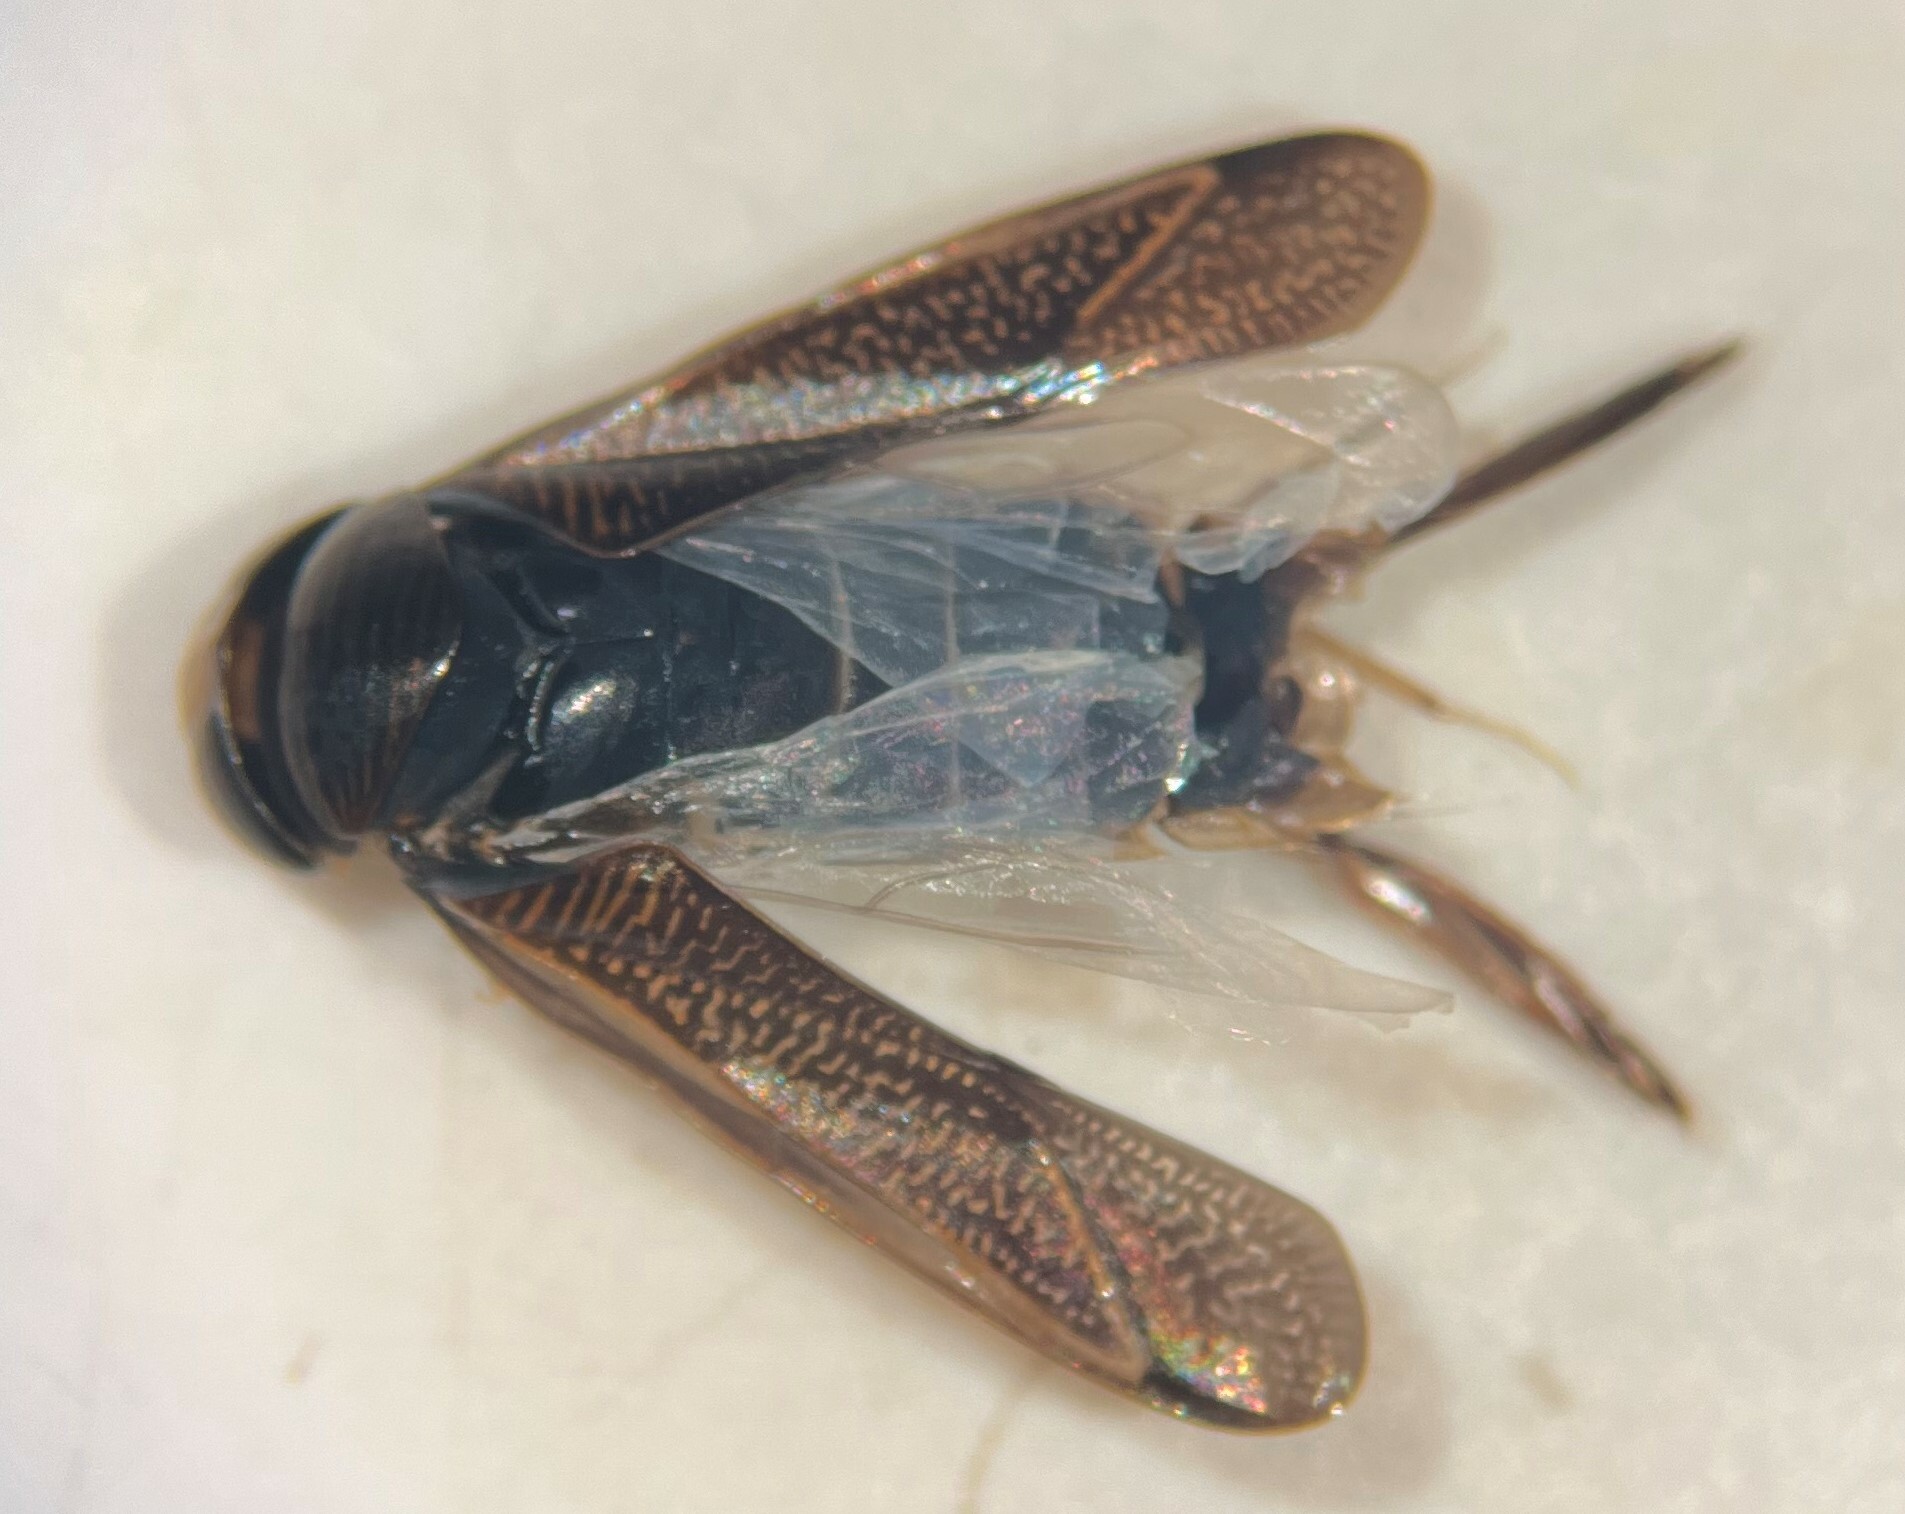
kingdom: Animalia
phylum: Arthropoda
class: Insecta
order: Hemiptera
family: Corixidae
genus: Hesperocorixa
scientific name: Hesperocorixa atopodonta
